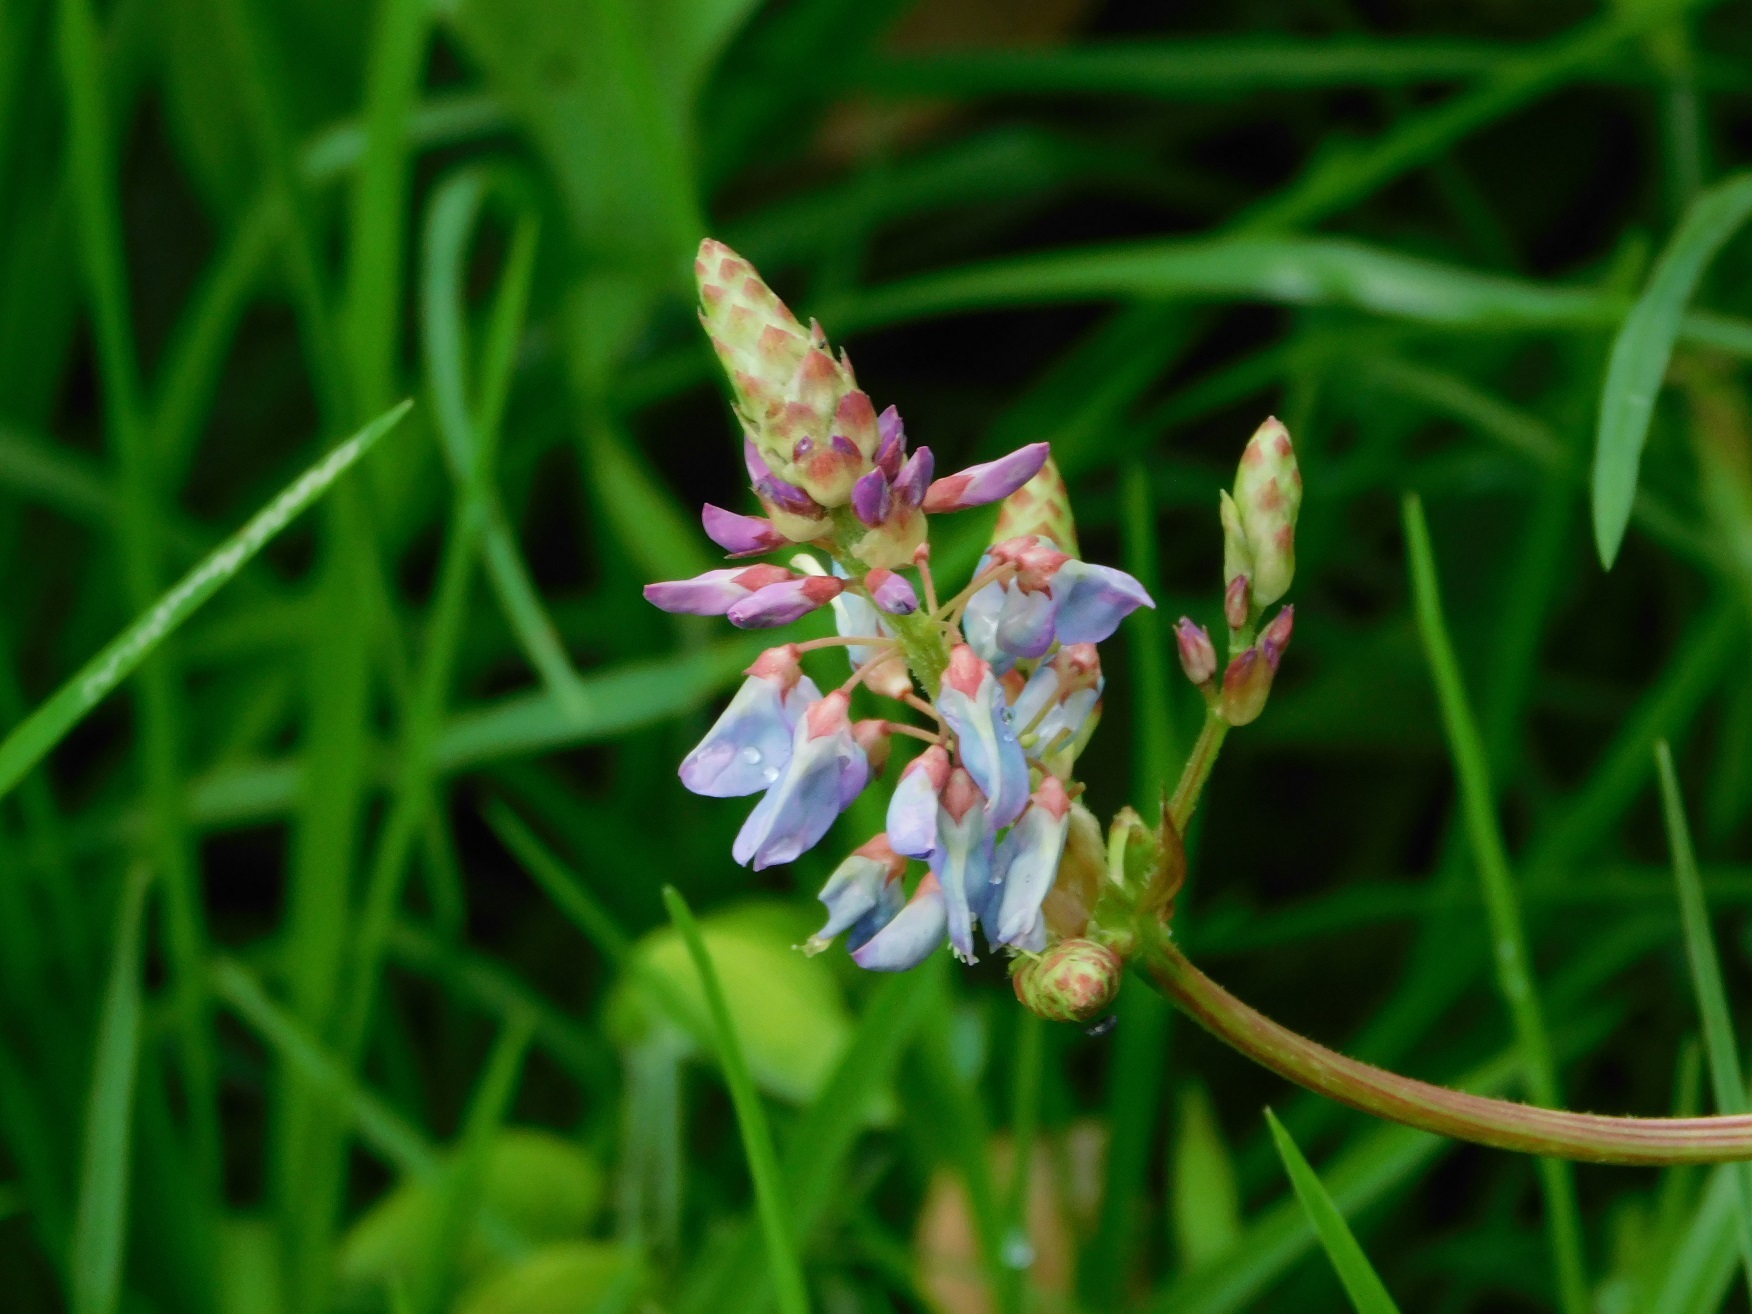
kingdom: Plantae
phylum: Tracheophyta
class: Magnoliopsida
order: Fabales
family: Fabaceae
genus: Desmodium
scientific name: Desmodium pringlei
